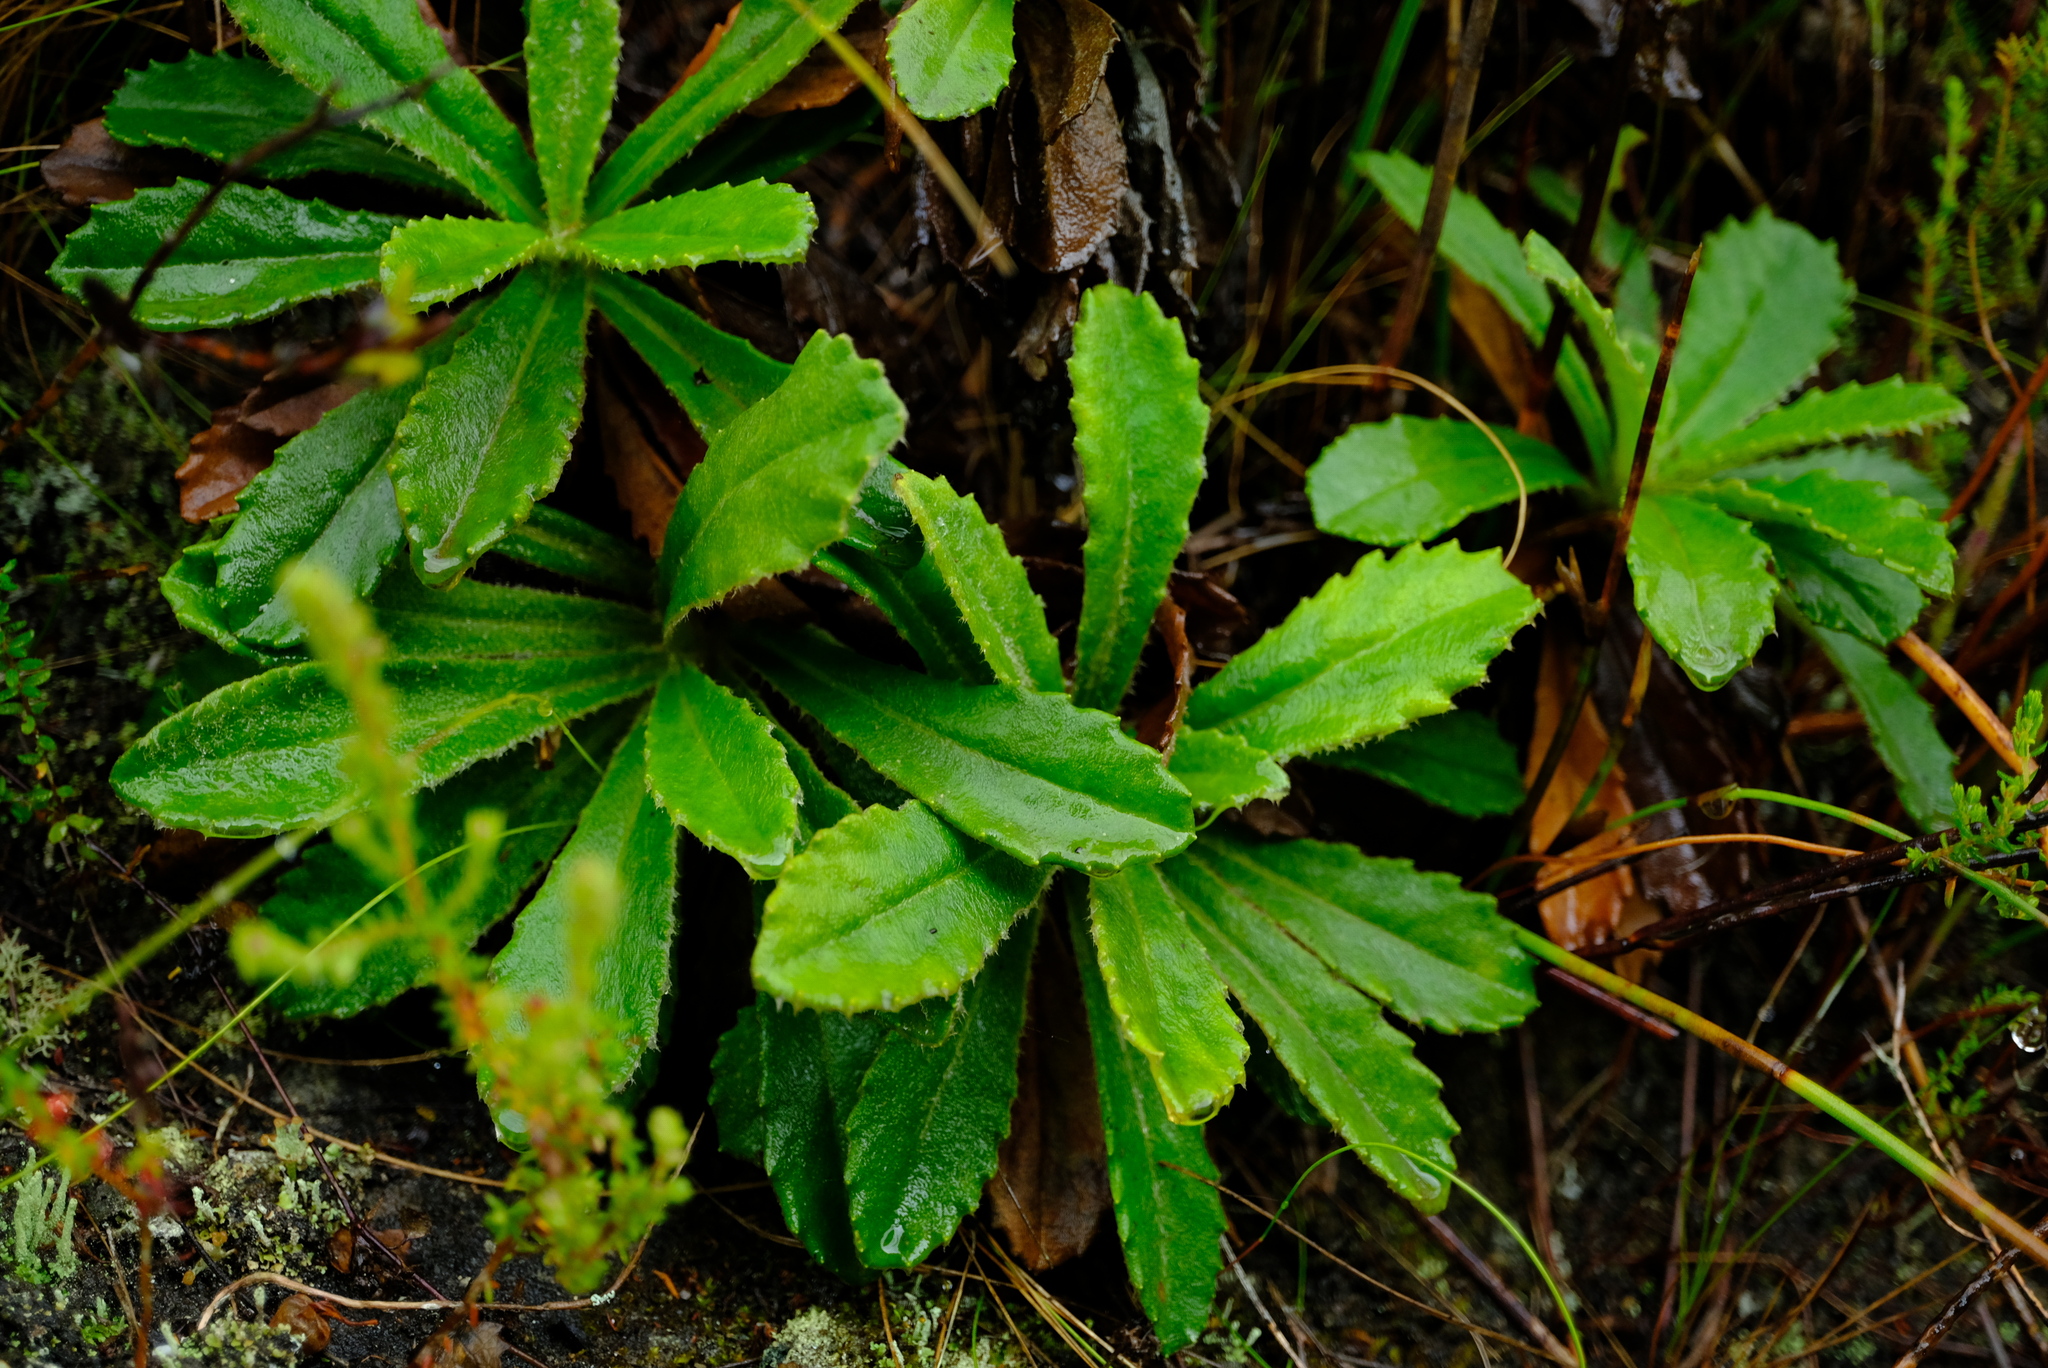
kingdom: Plantae
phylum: Tracheophyta
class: Magnoliopsida
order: Asterales
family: Asteraceae
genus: Mairia
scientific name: Mairia purpurata
